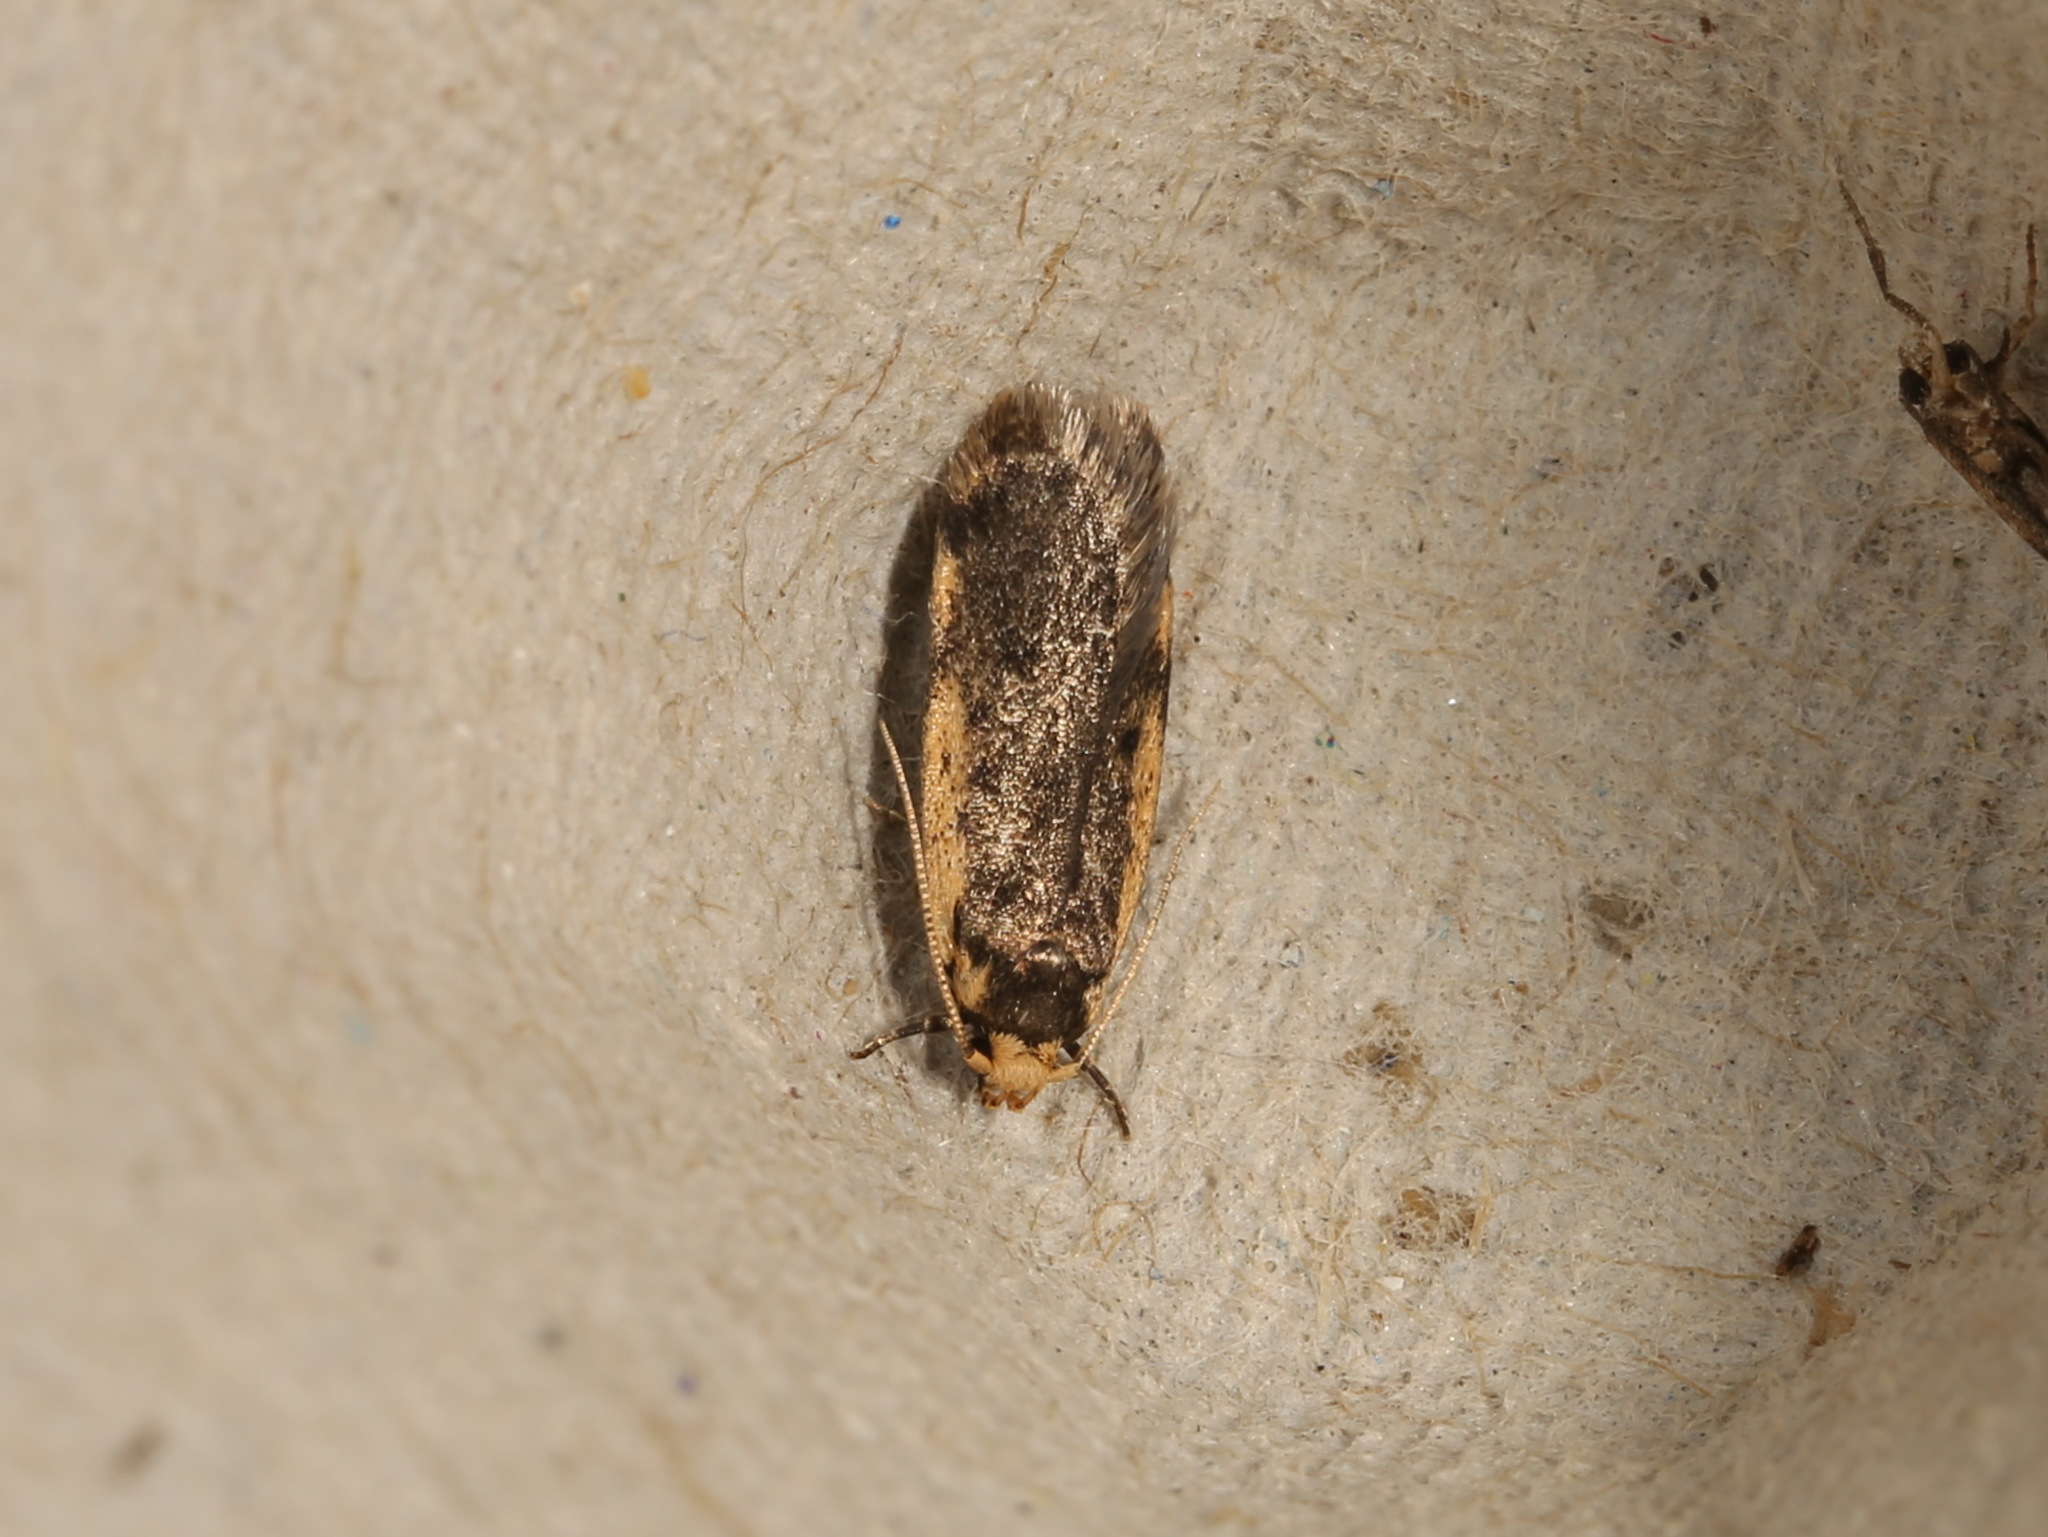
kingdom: Animalia
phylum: Arthropoda
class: Insecta
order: Lepidoptera
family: Oecophoridae
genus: Hoplostega
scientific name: Hoplostega ochroma
